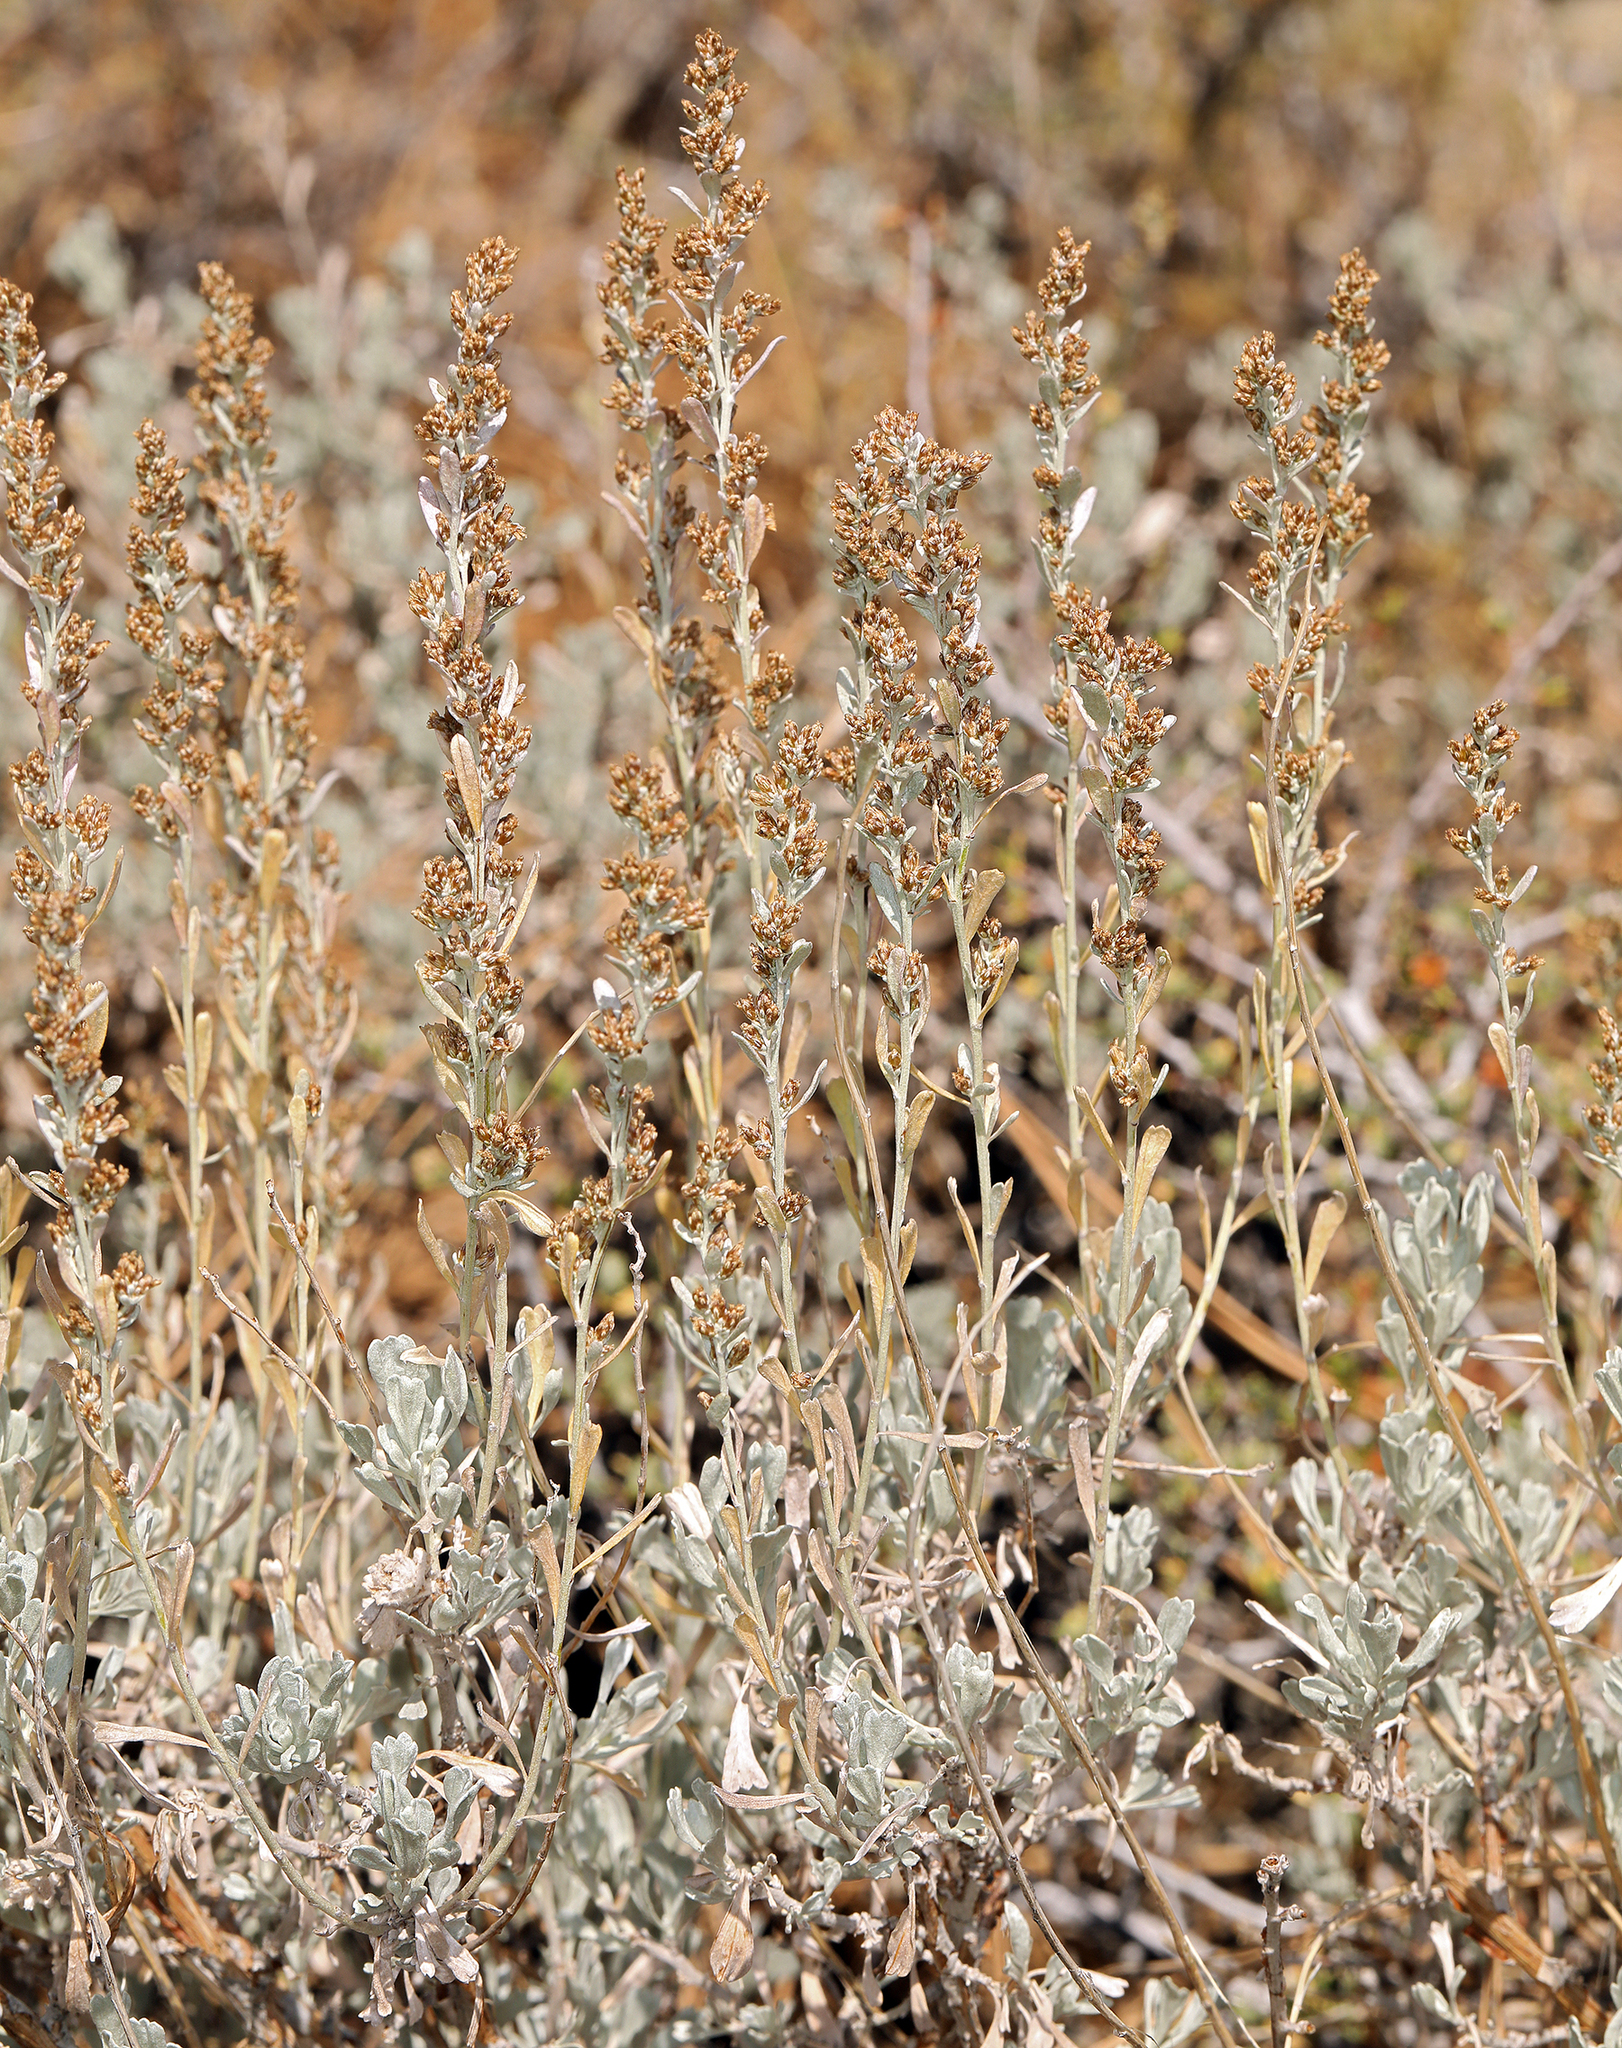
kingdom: Plantae
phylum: Tracheophyta
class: Magnoliopsida
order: Asterales
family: Asteraceae
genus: Artemisia
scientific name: Artemisia tridentata
